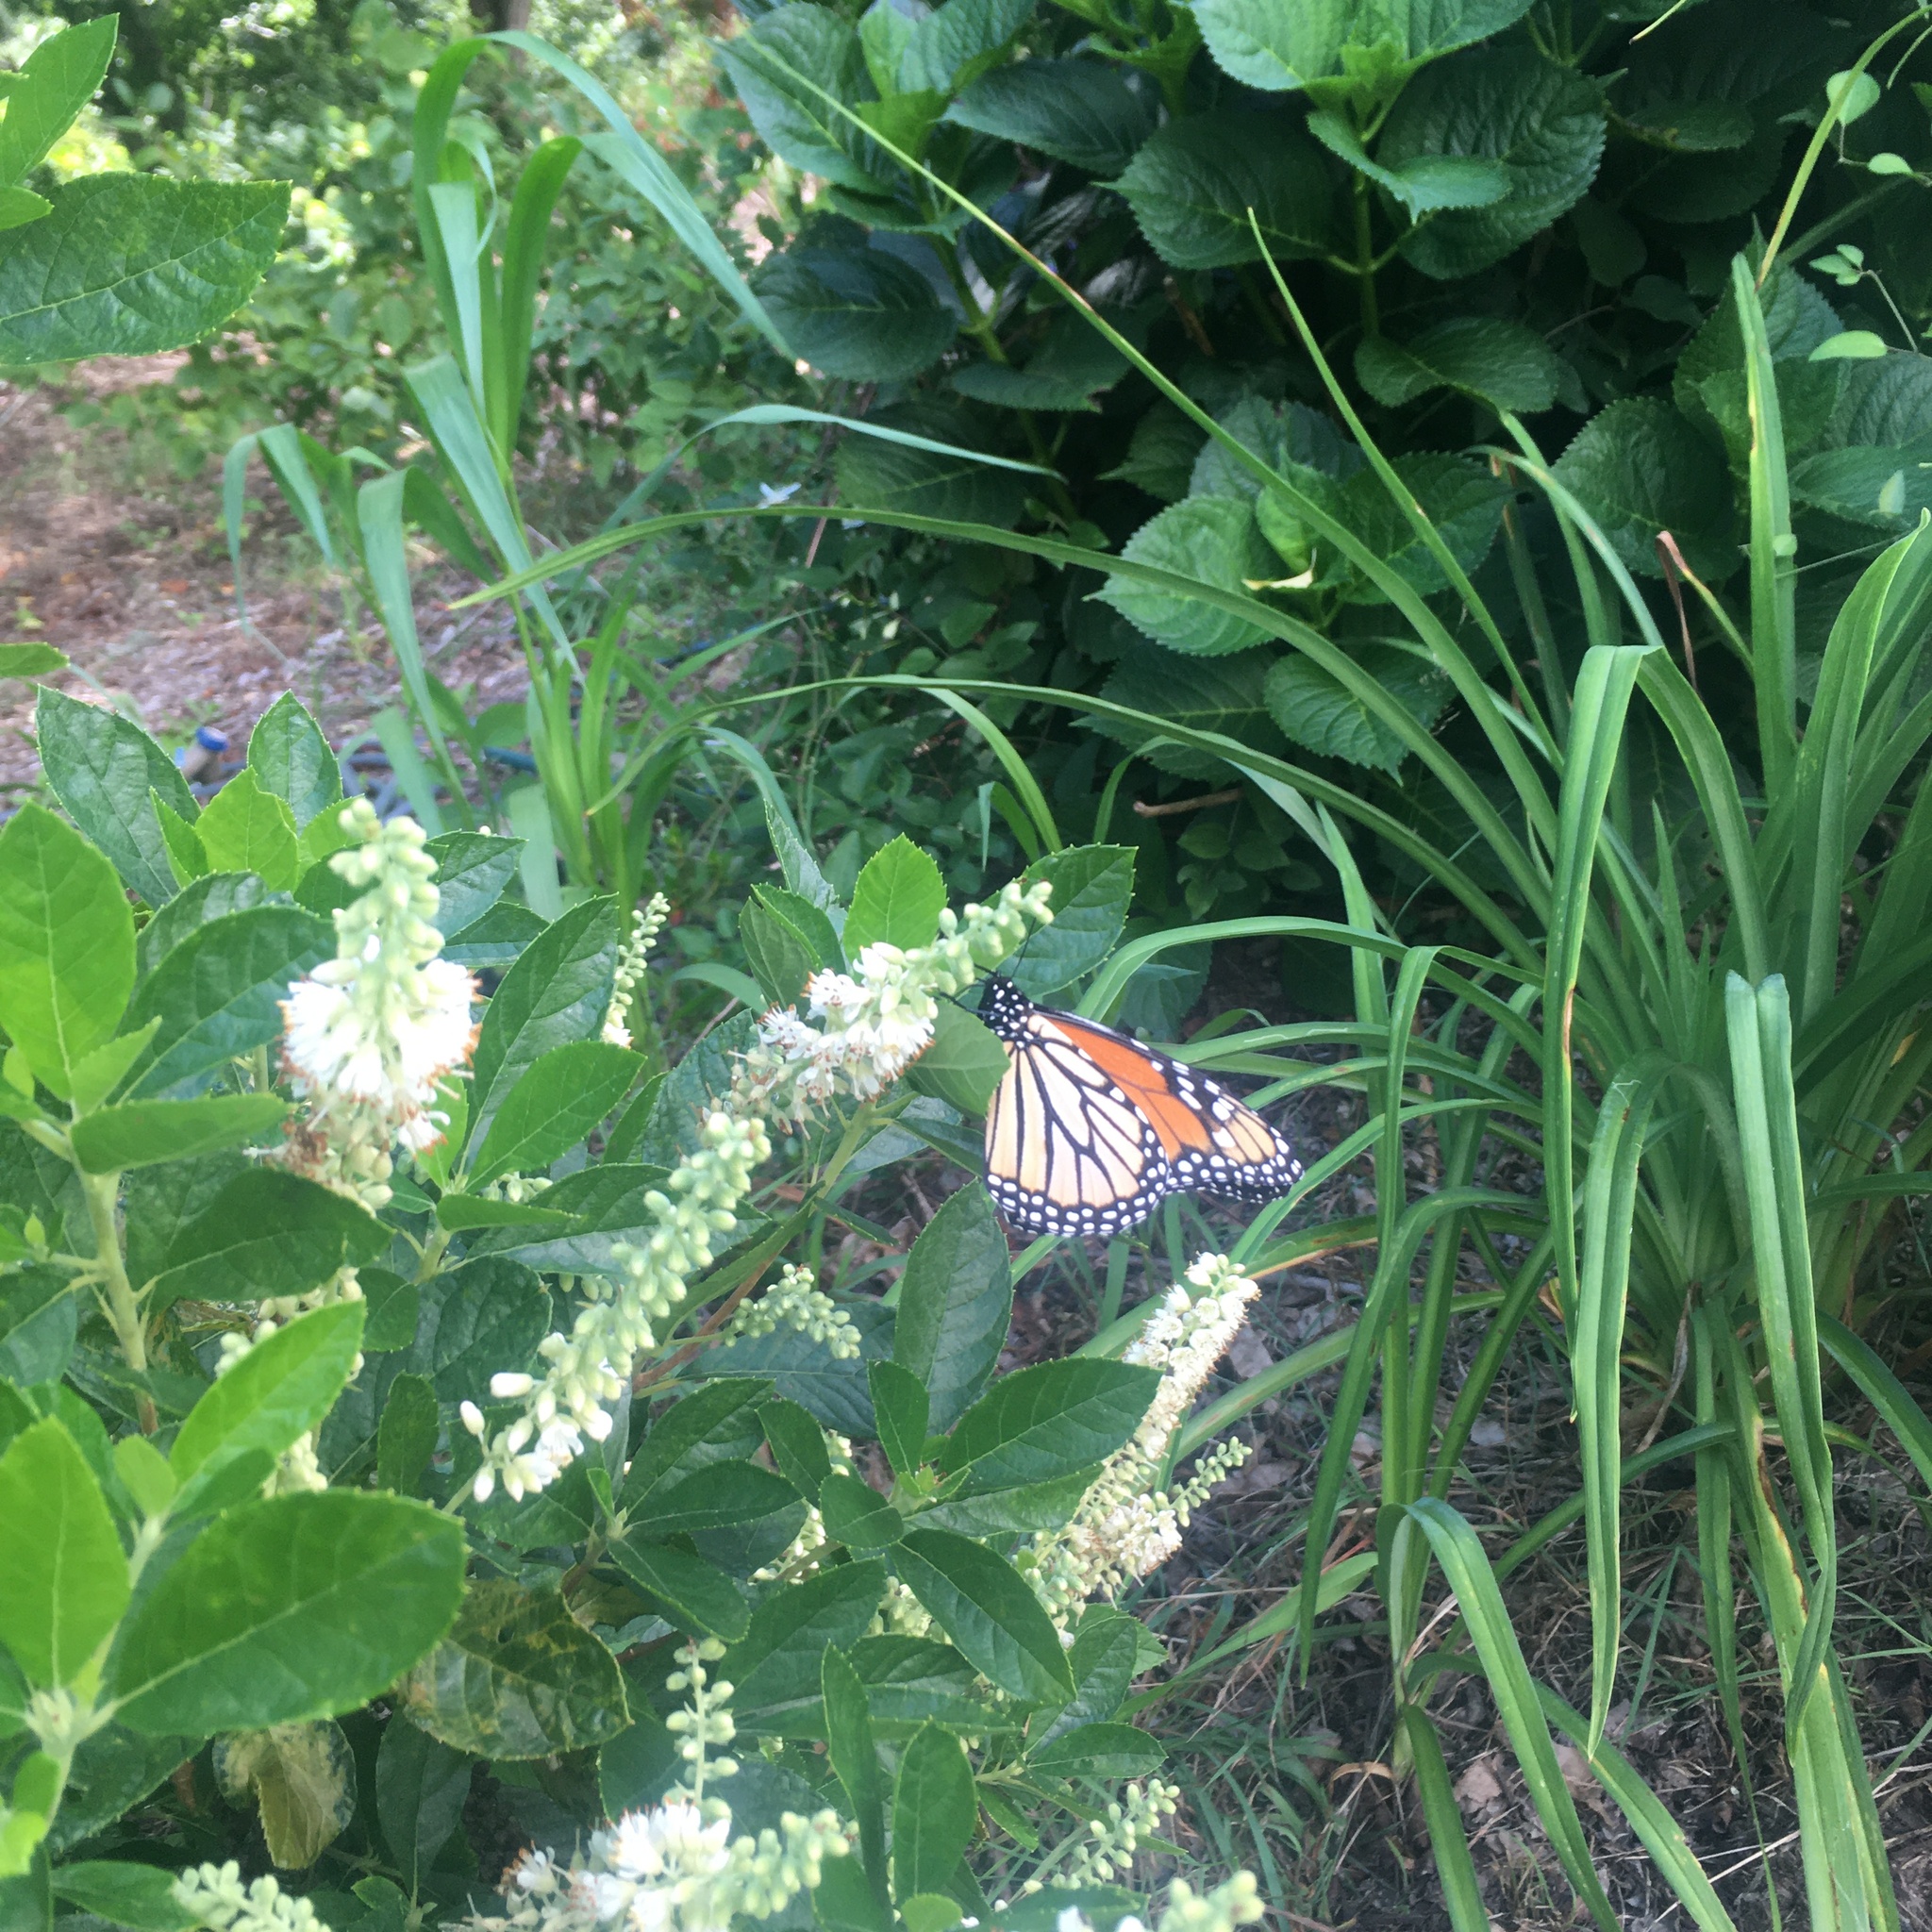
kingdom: Animalia
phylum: Arthropoda
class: Insecta
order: Lepidoptera
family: Nymphalidae
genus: Danaus
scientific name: Danaus plexippus
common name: Monarch
